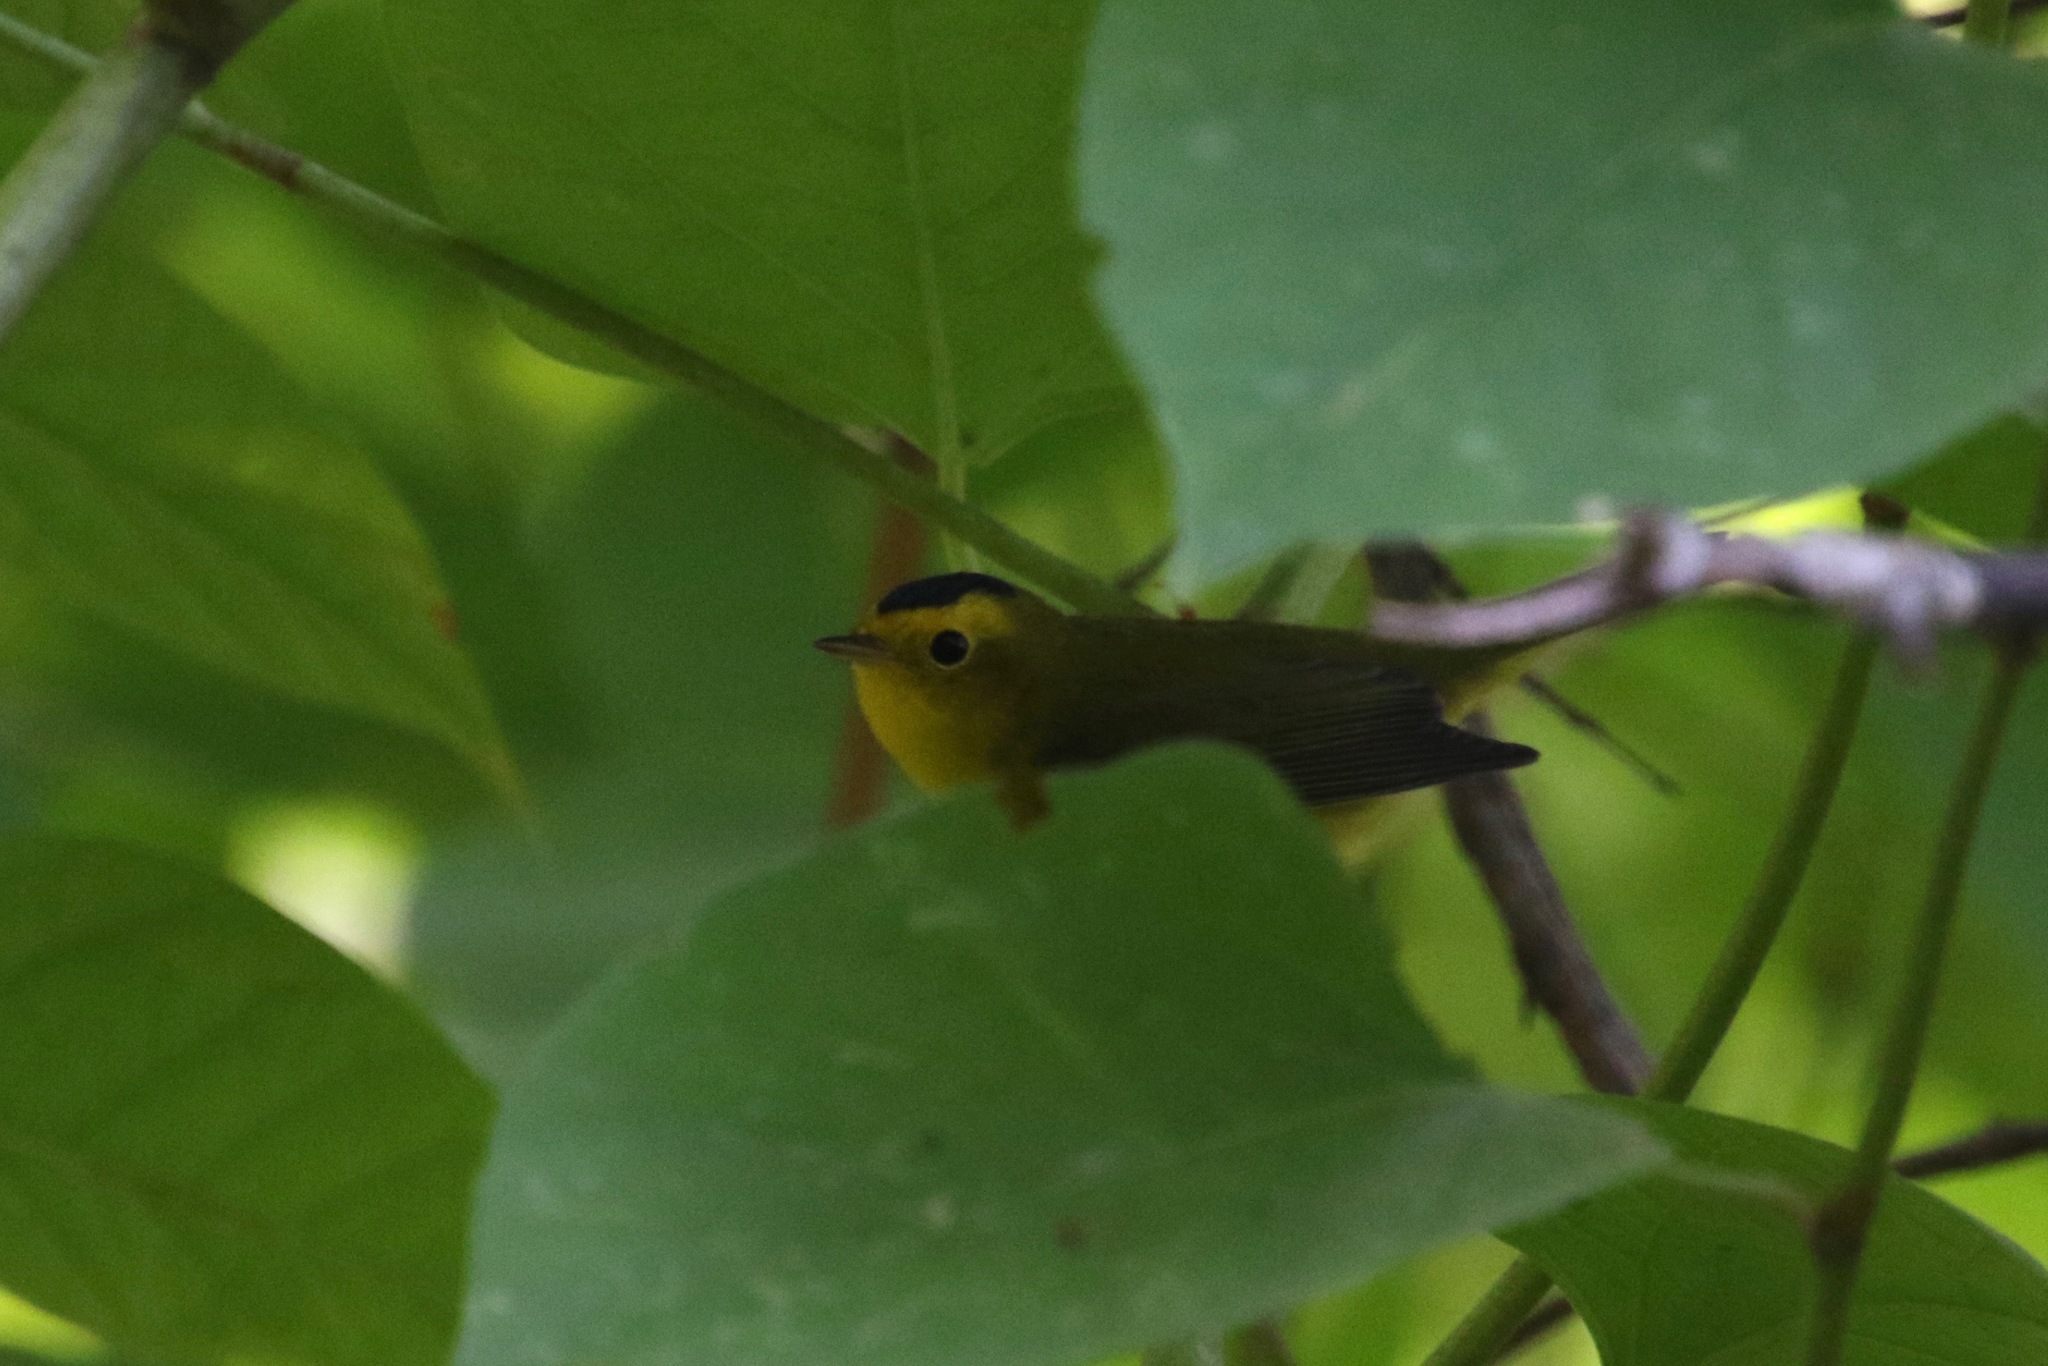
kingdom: Animalia
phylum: Chordata
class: Aves
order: Passeriformes
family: Parulidae
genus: Cardellina
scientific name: Cardellina pusilla
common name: Wilson's warbler
